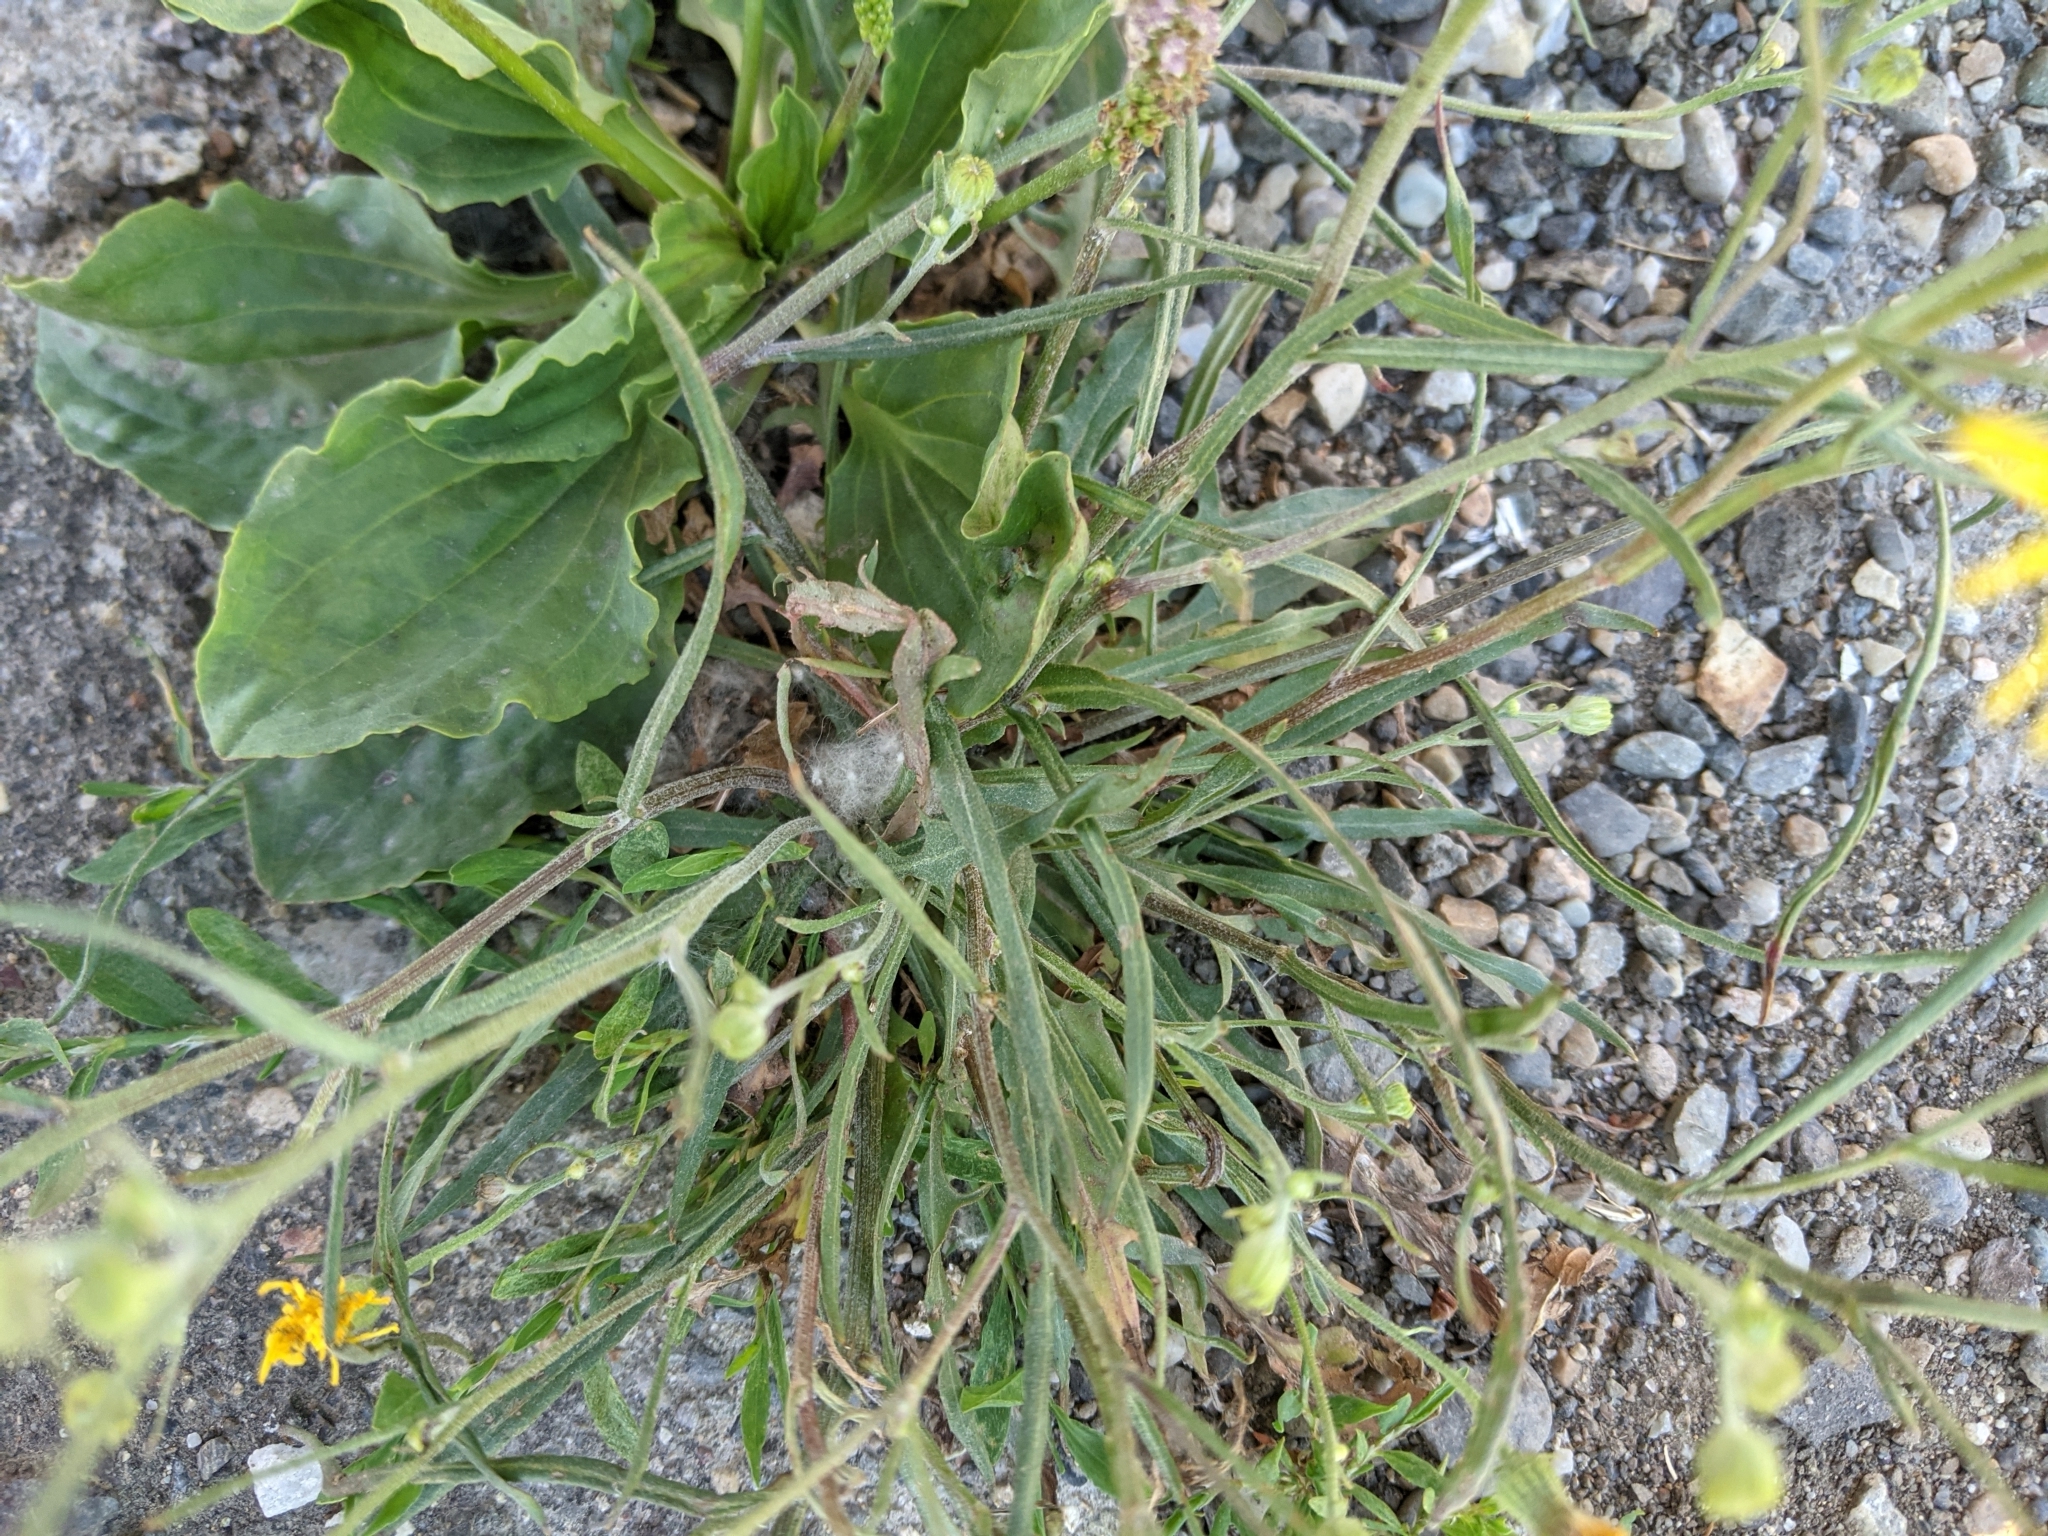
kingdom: Plantae
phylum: Tracheophyta
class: Magnoliopsida
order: Asterales
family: Asteraceae
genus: Hieracium
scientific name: Hieracium umbellatum
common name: Northern hawkweed
